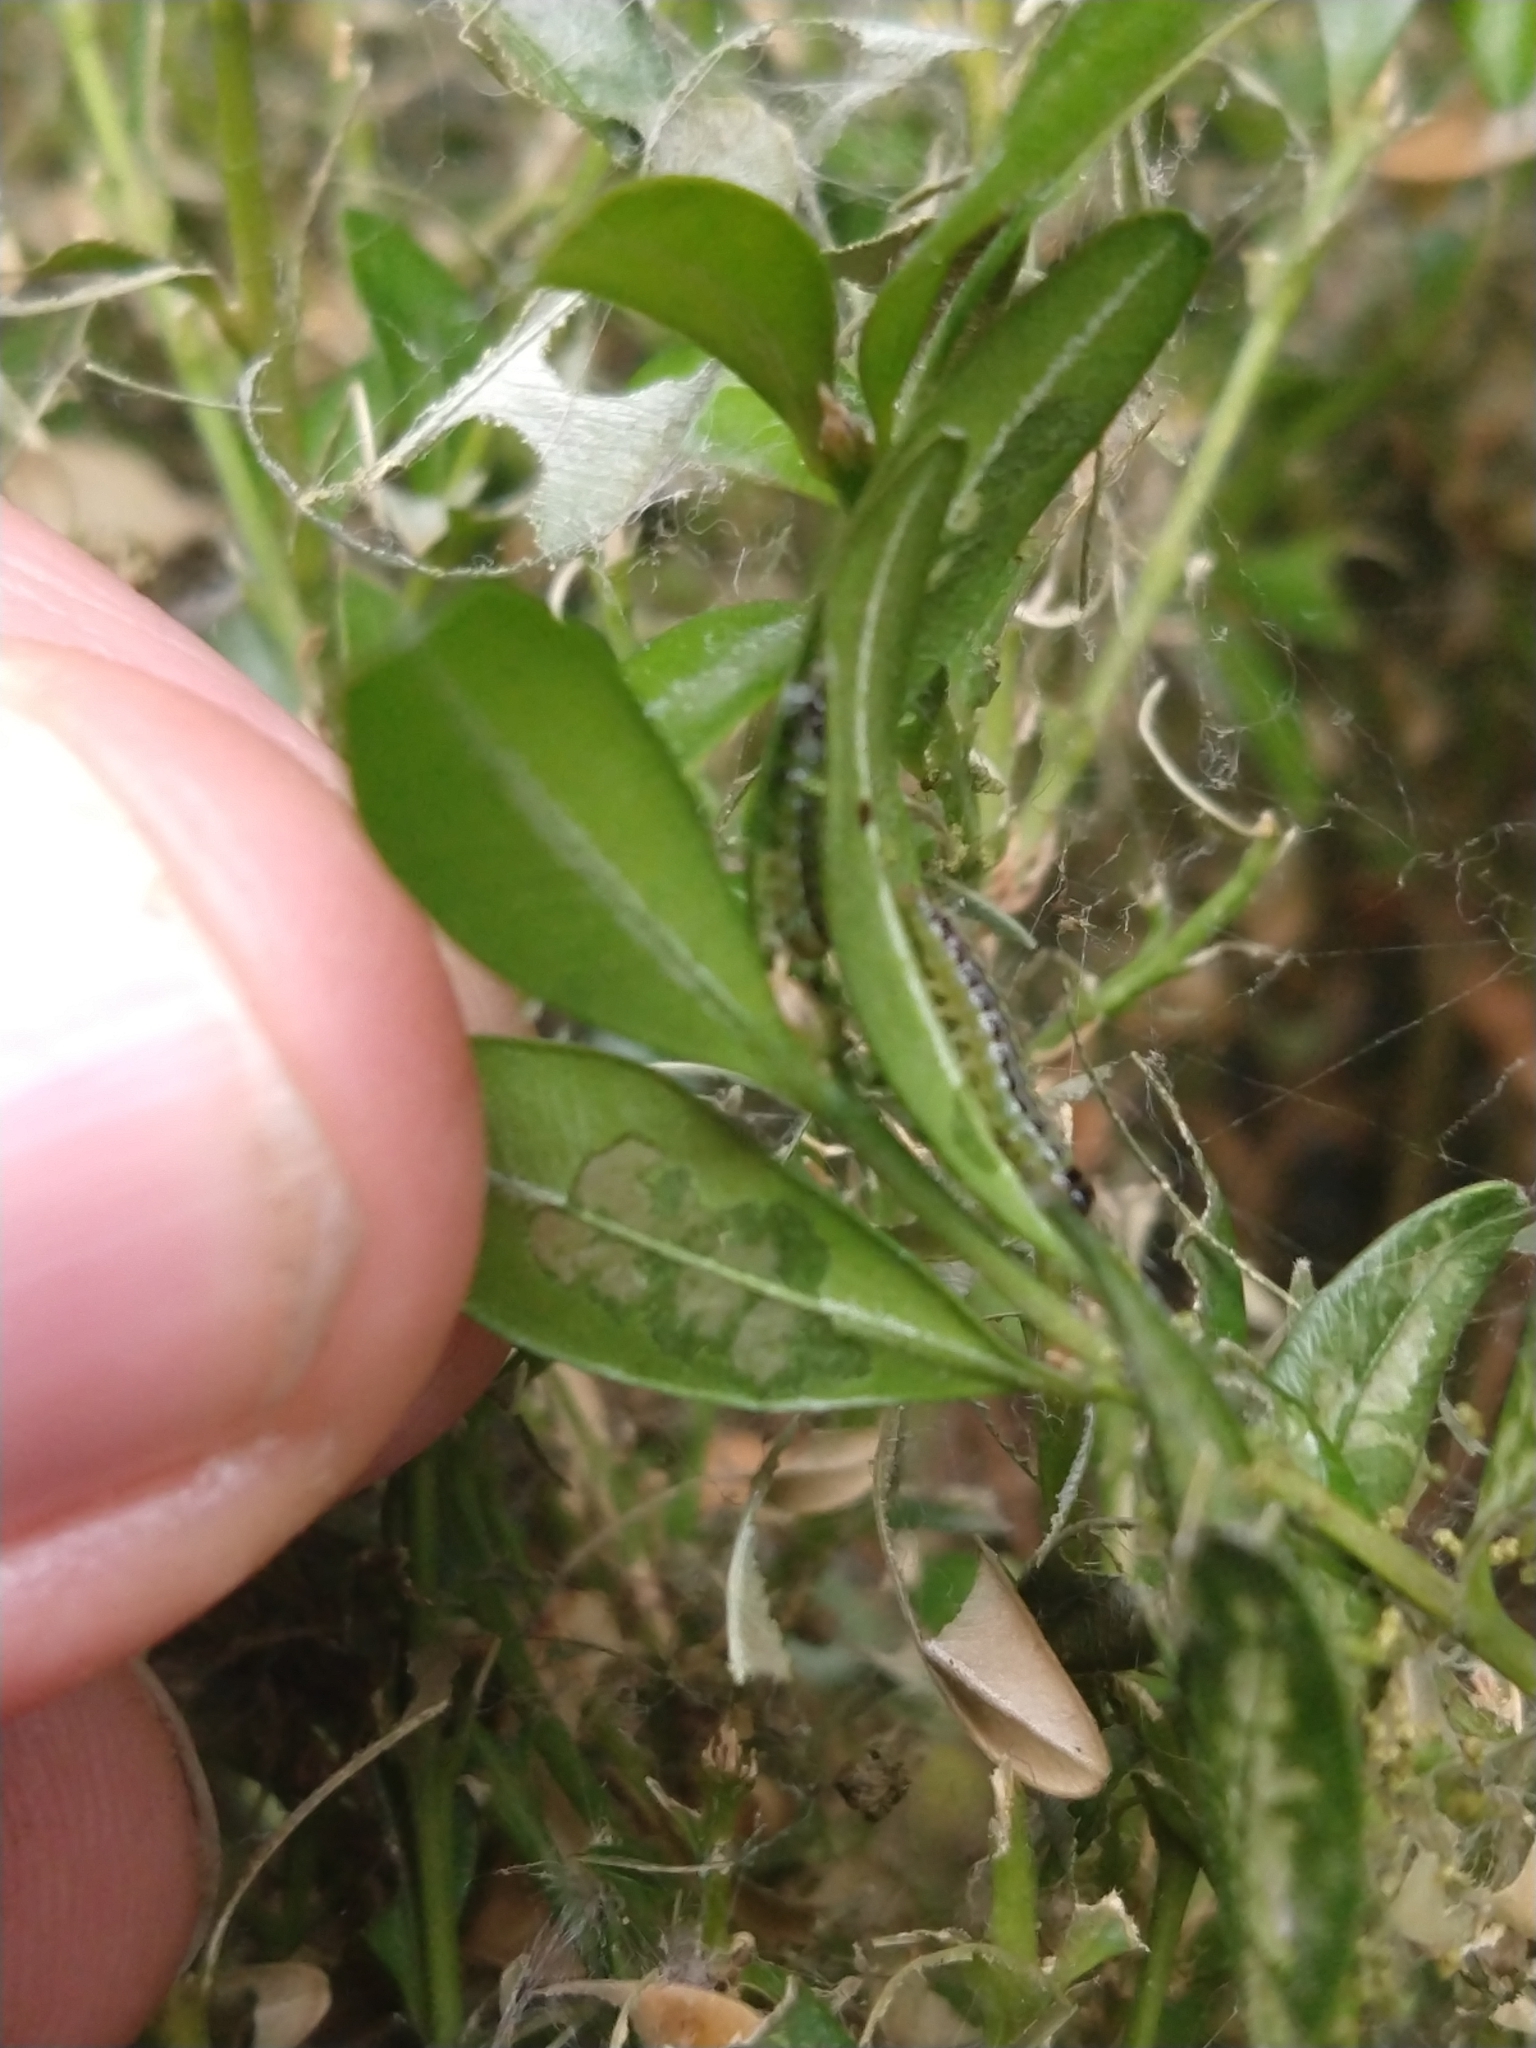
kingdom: Animalia
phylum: Arthropoda
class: Insecta
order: Lepidoptera
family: Crambidae
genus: Cydalima
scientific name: Cydalima perspectalis
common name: Box tree moth
